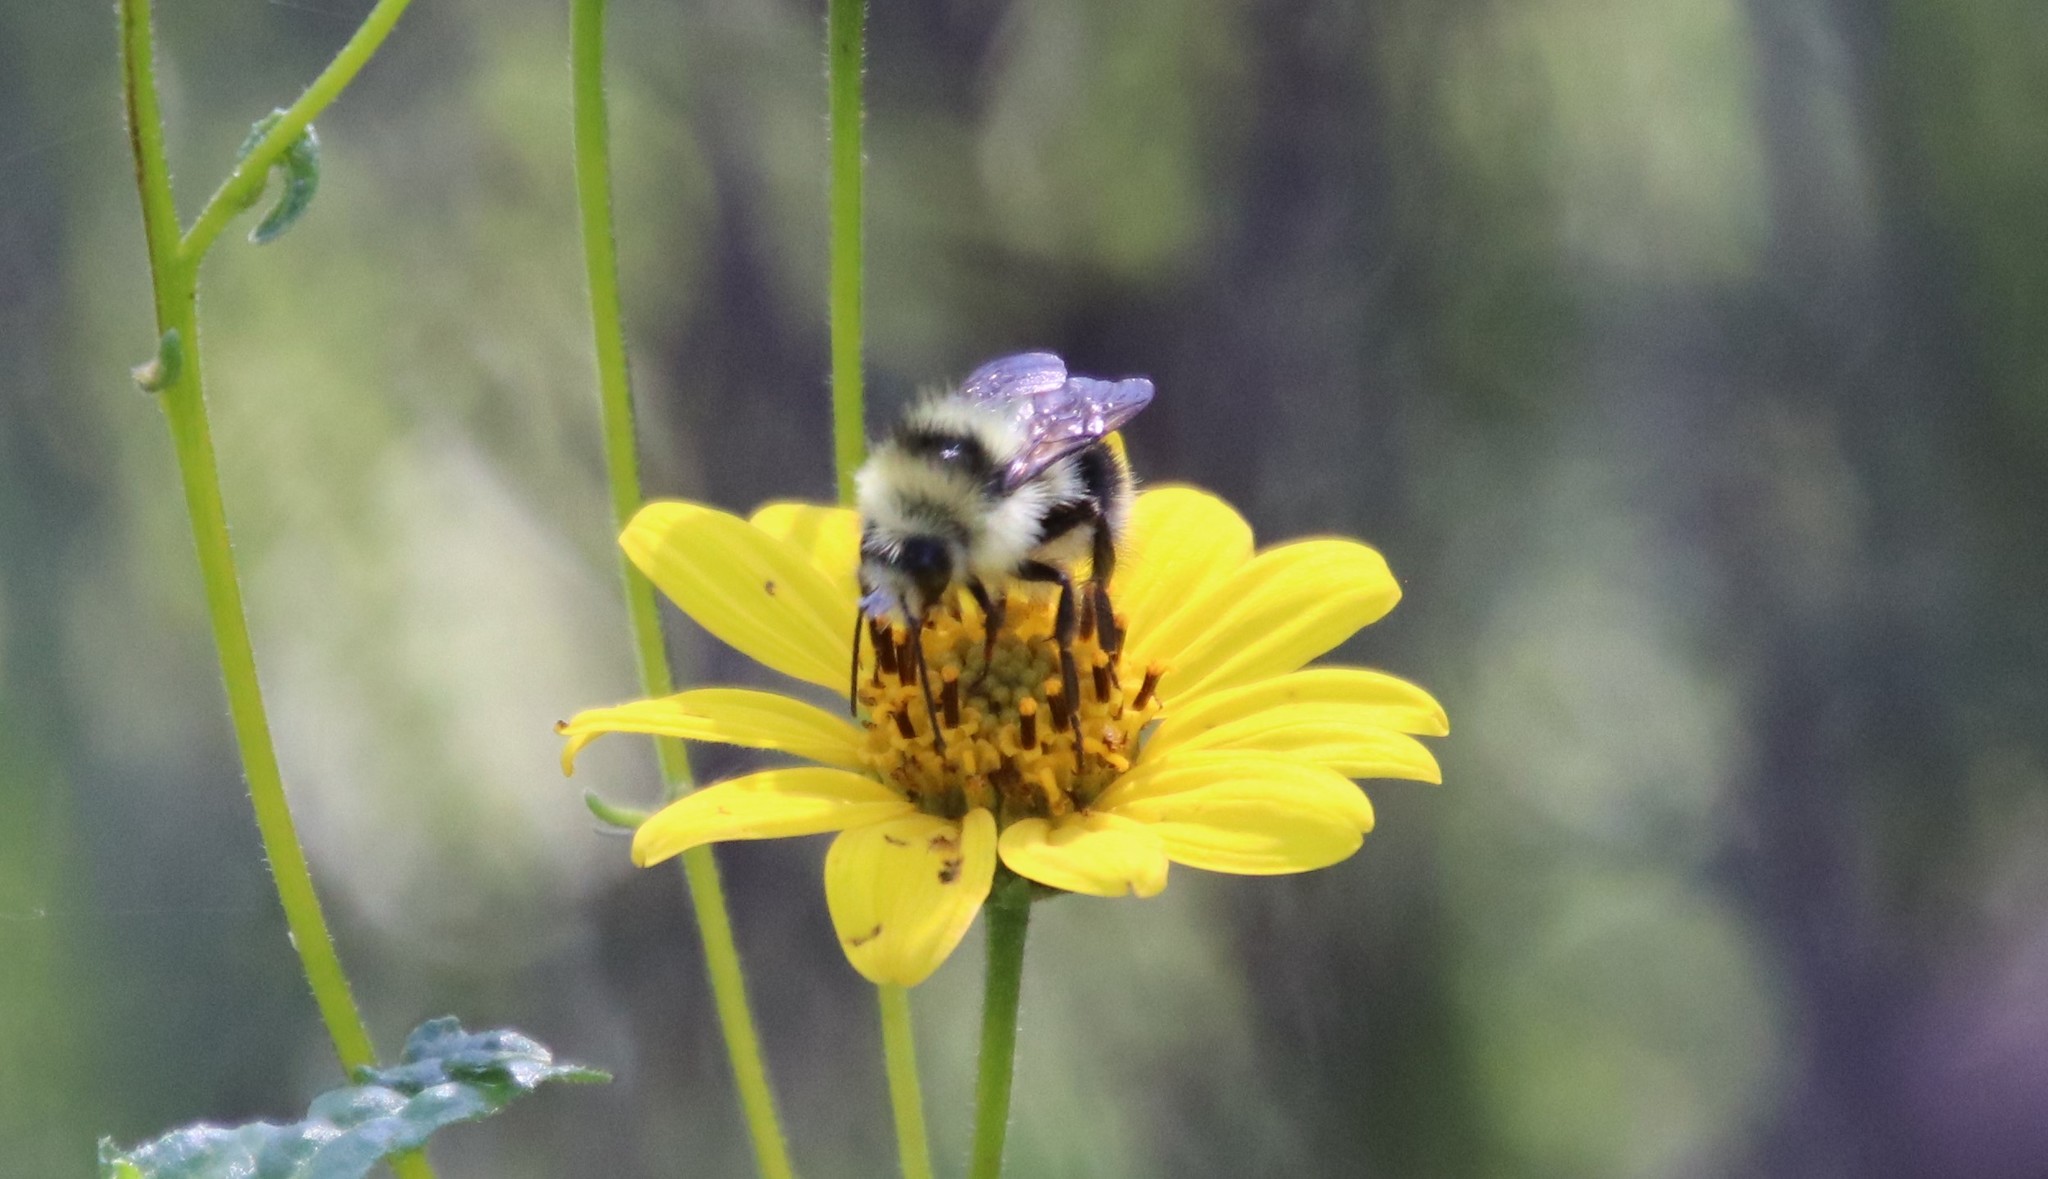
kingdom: Animalia
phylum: Arthropoda
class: Insecta
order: Hymenoptera
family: Apidae
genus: Bombus
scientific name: Bombus melanopygus
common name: Black tail bumble bee
